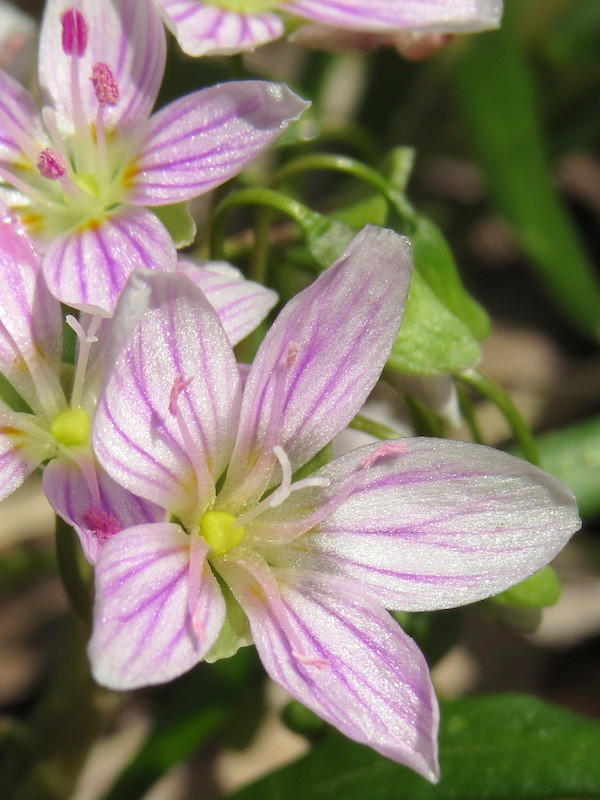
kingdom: Plantae
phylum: Tracheophyta
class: Magnoliopsida
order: Caryophyllales
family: Montiaceae
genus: Claytonia
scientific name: Claytonia virginica
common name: Virginia springbeauty
